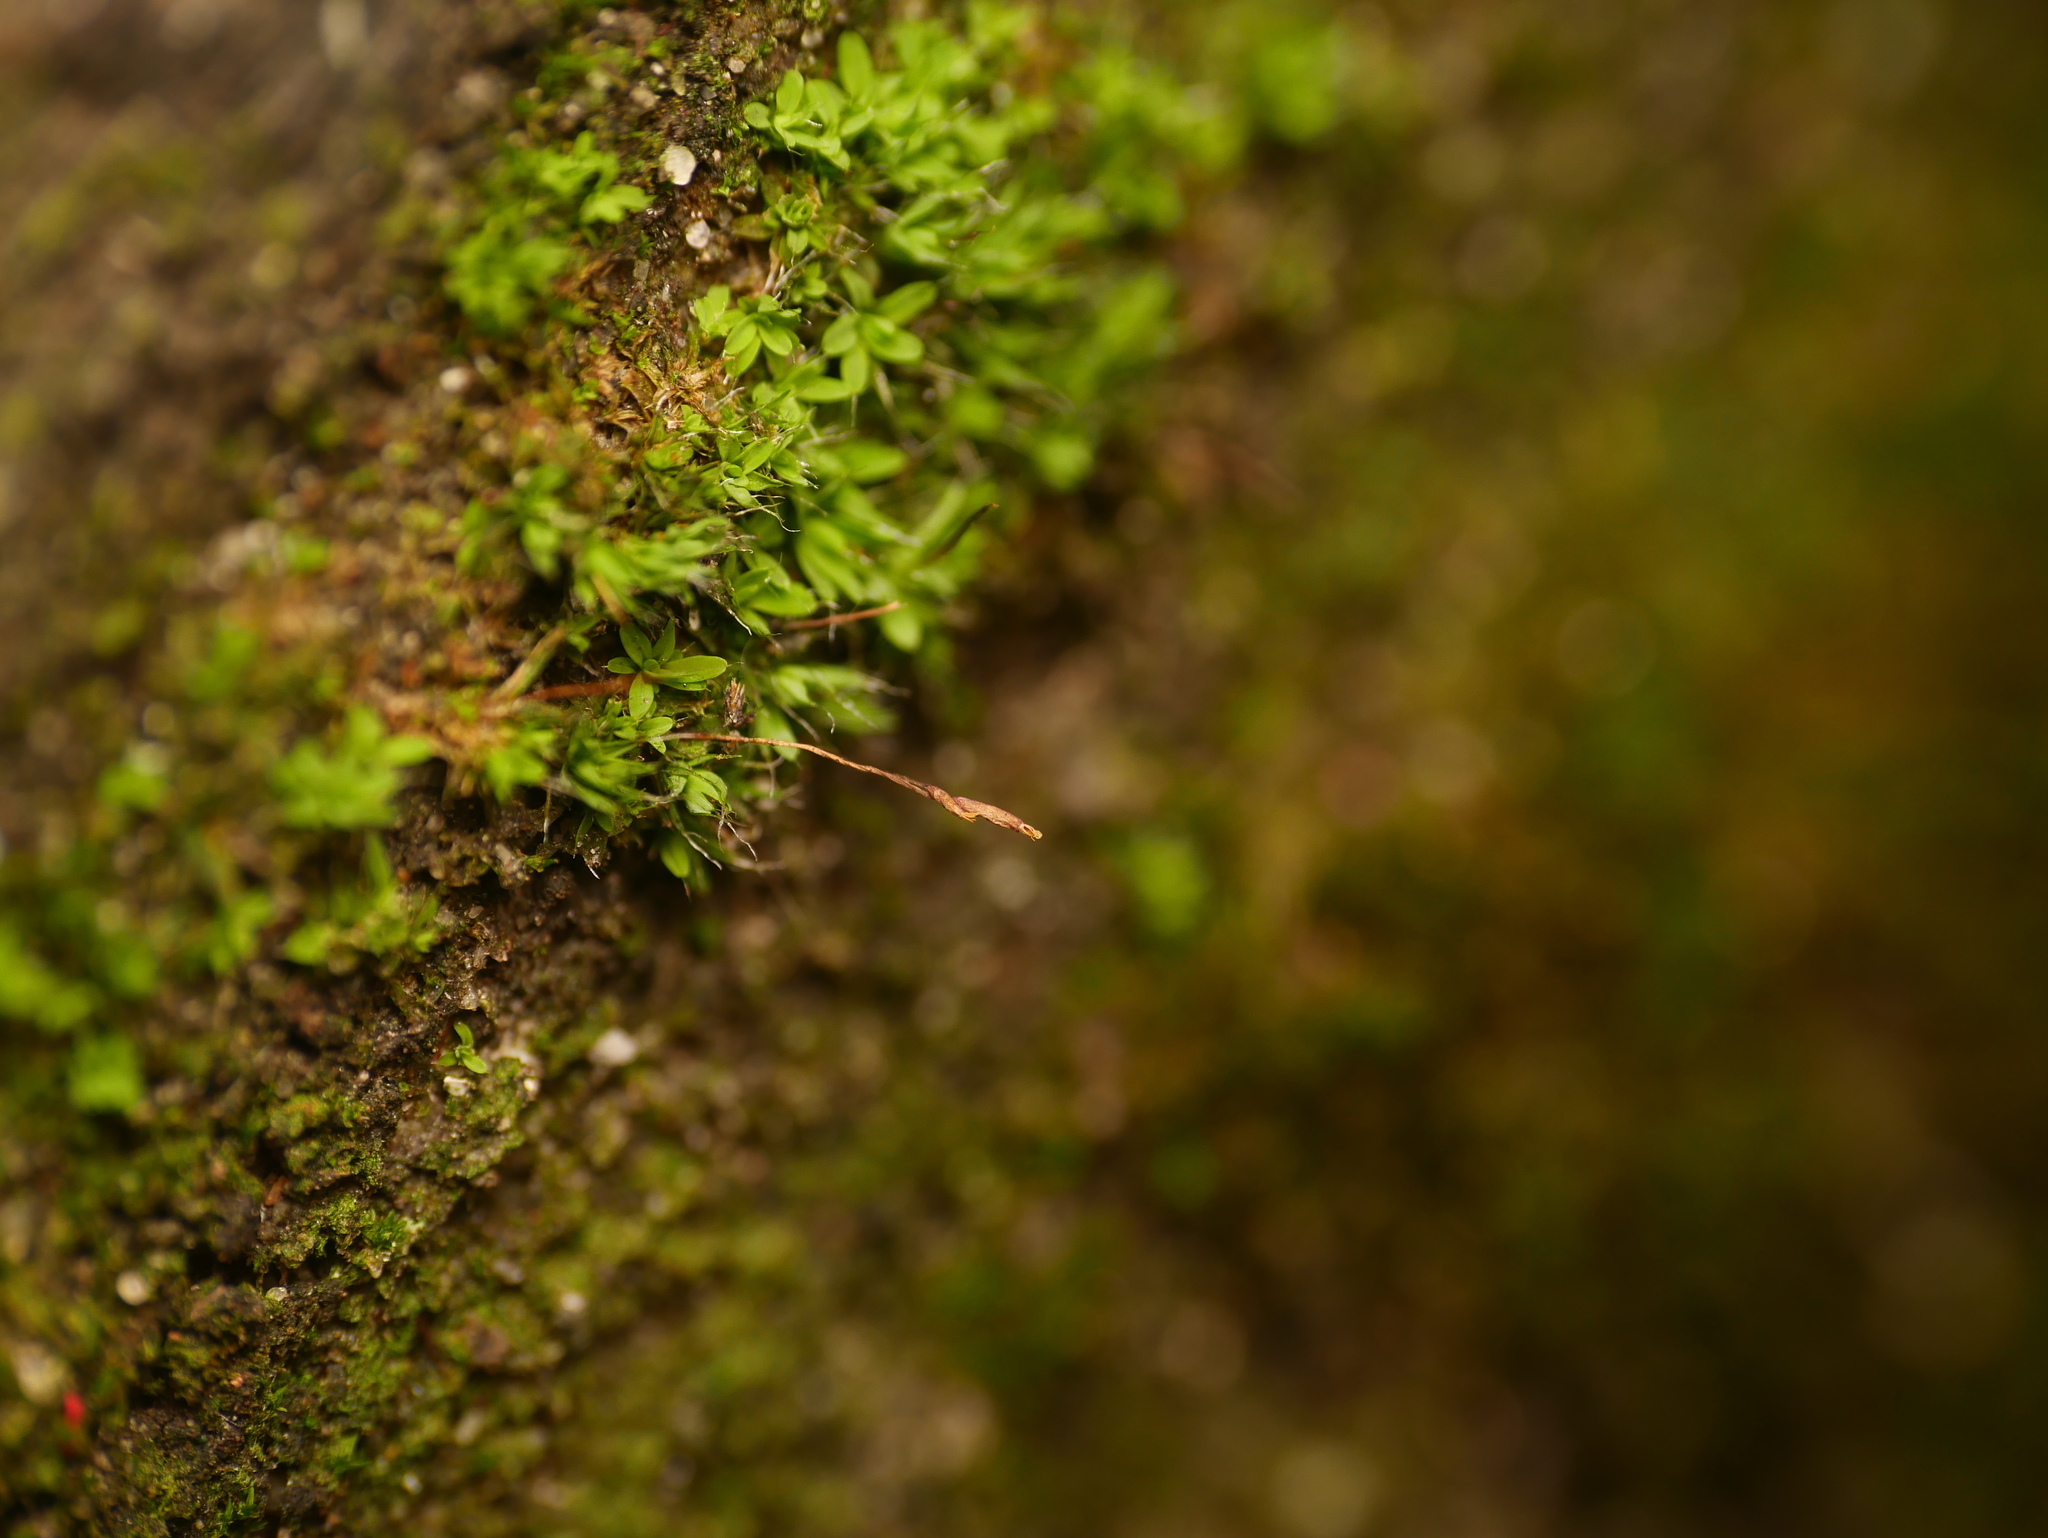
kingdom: Plantae
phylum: Bryophyta
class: Bryopsida
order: Pottiales
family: Pottiaceae
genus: Tortula
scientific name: Tortula muralis
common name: Wall screw-moss
